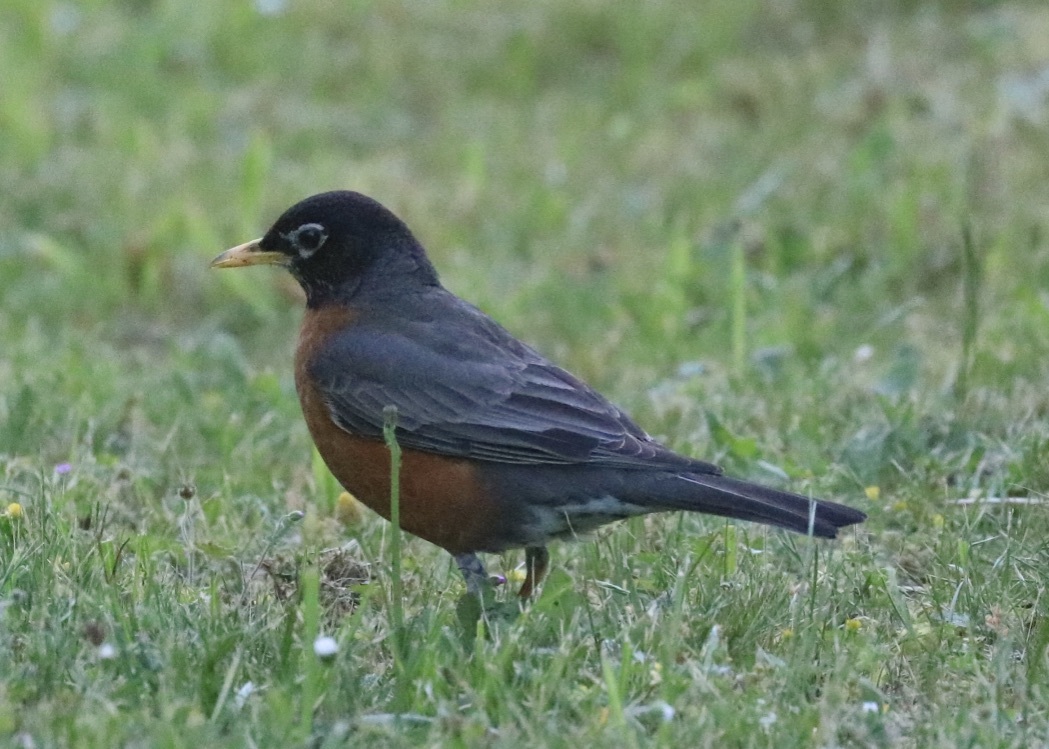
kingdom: Animalia
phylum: Chordata
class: Aves
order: Passeriformes
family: Turdidae
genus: Turdus
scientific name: Turdus migratorius
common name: American robin
